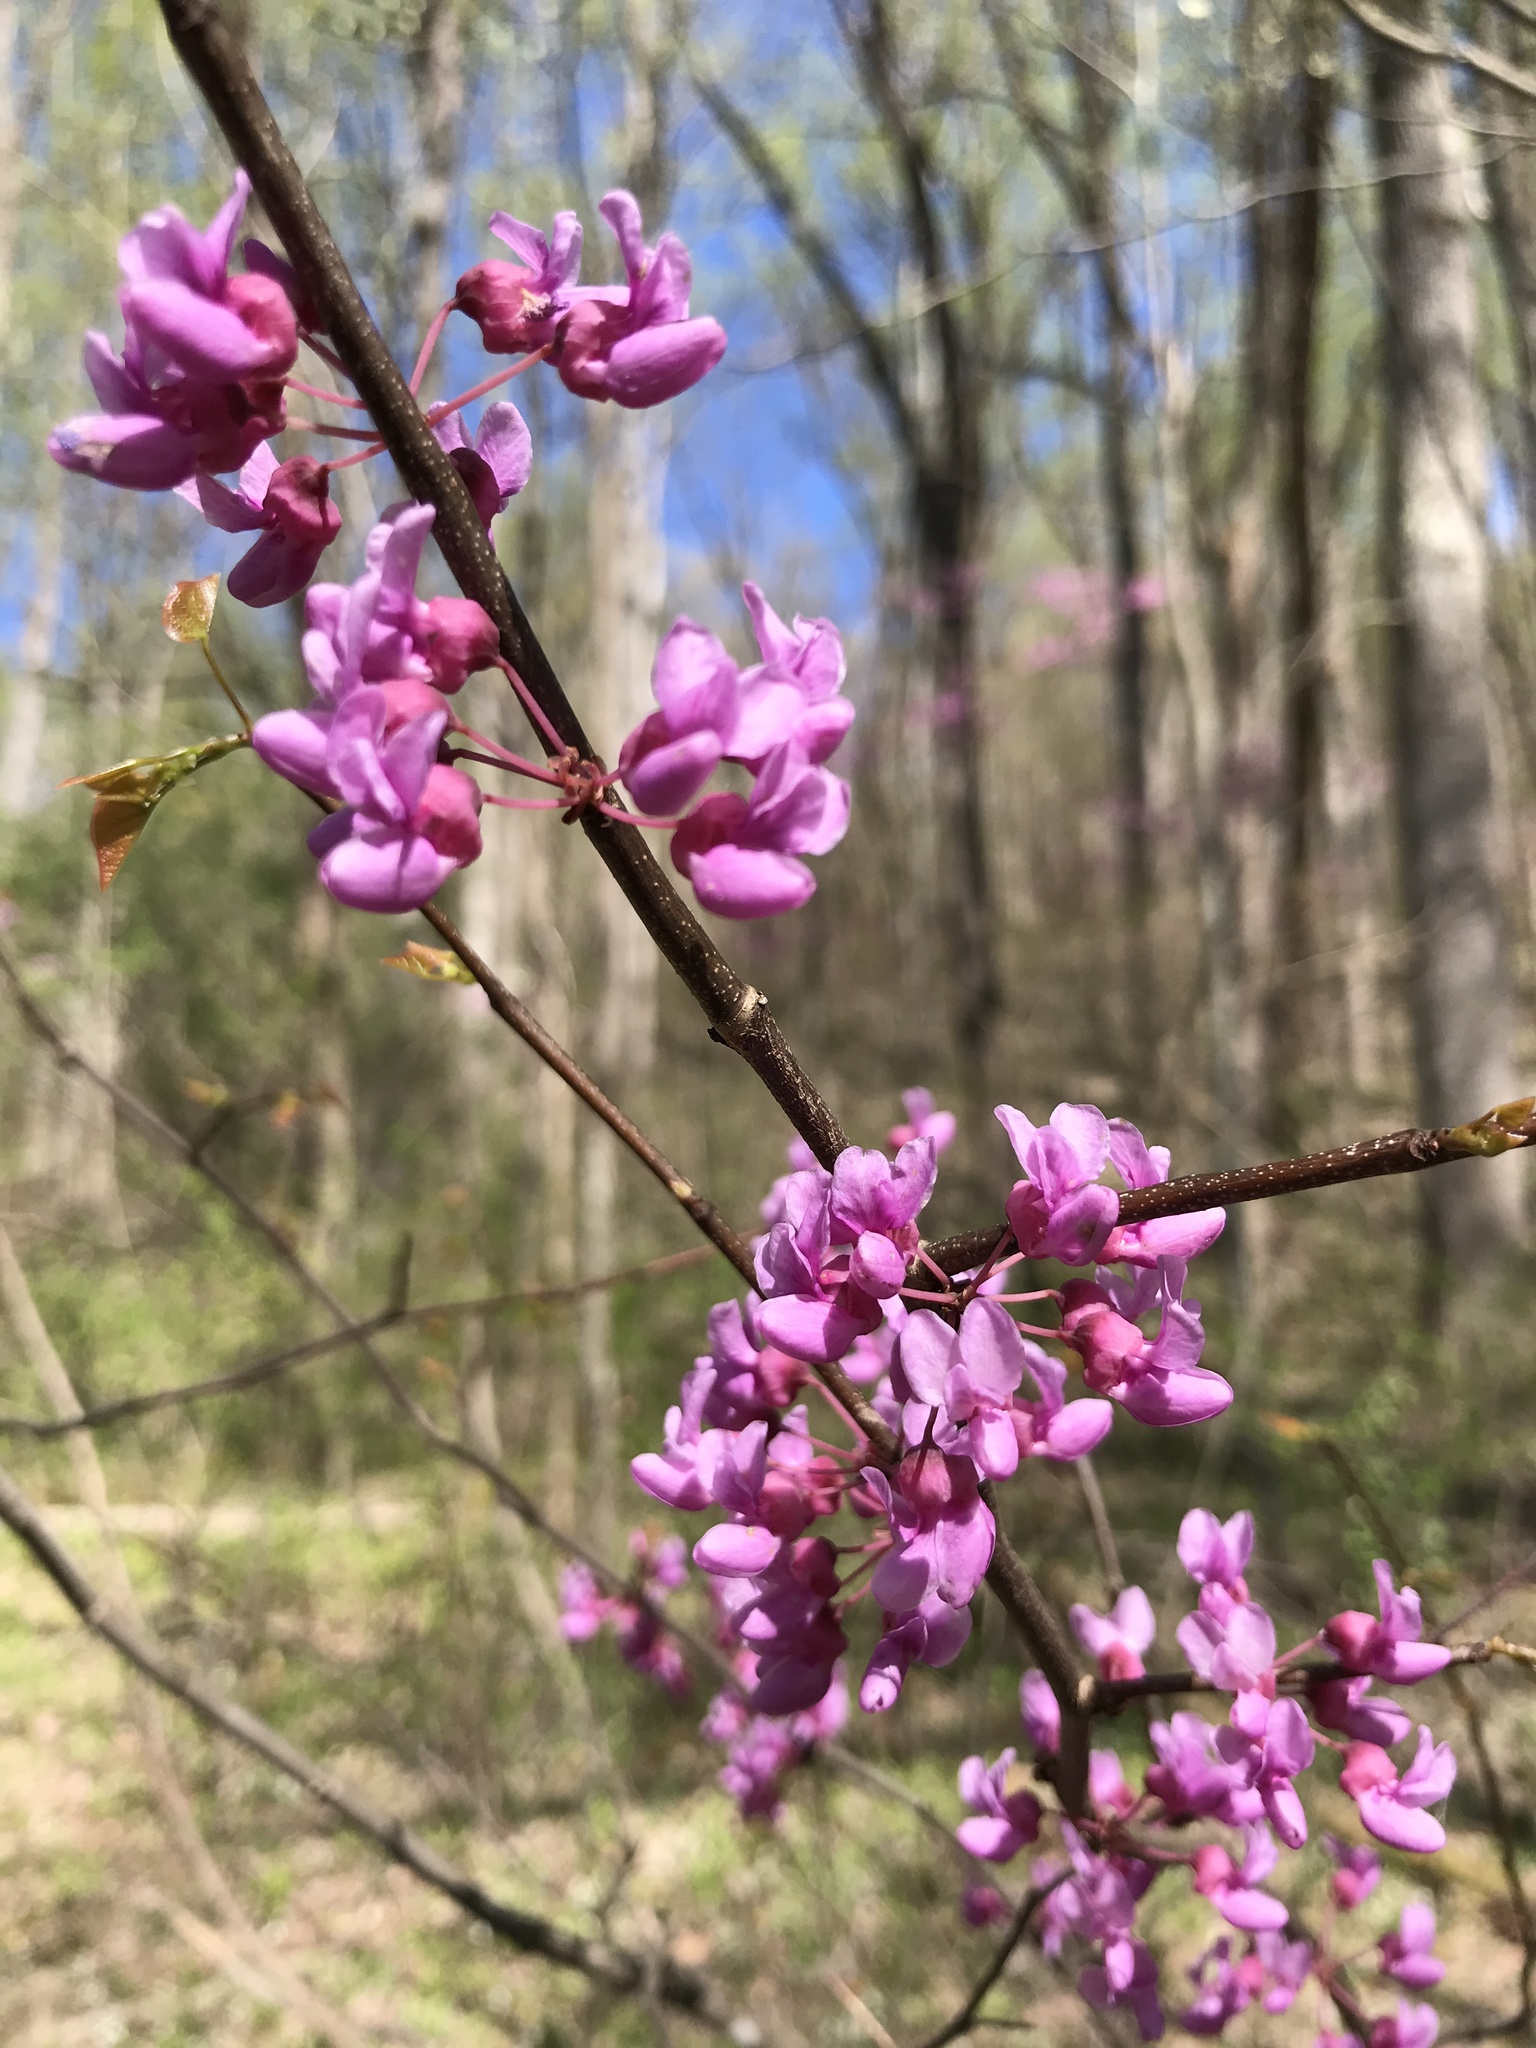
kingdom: Plantae
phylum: Tracheophyta
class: Magnoliopsida
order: Fabales
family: Fabaceae
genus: Cercis
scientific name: Cercis canadensis
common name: Eastern redbud
